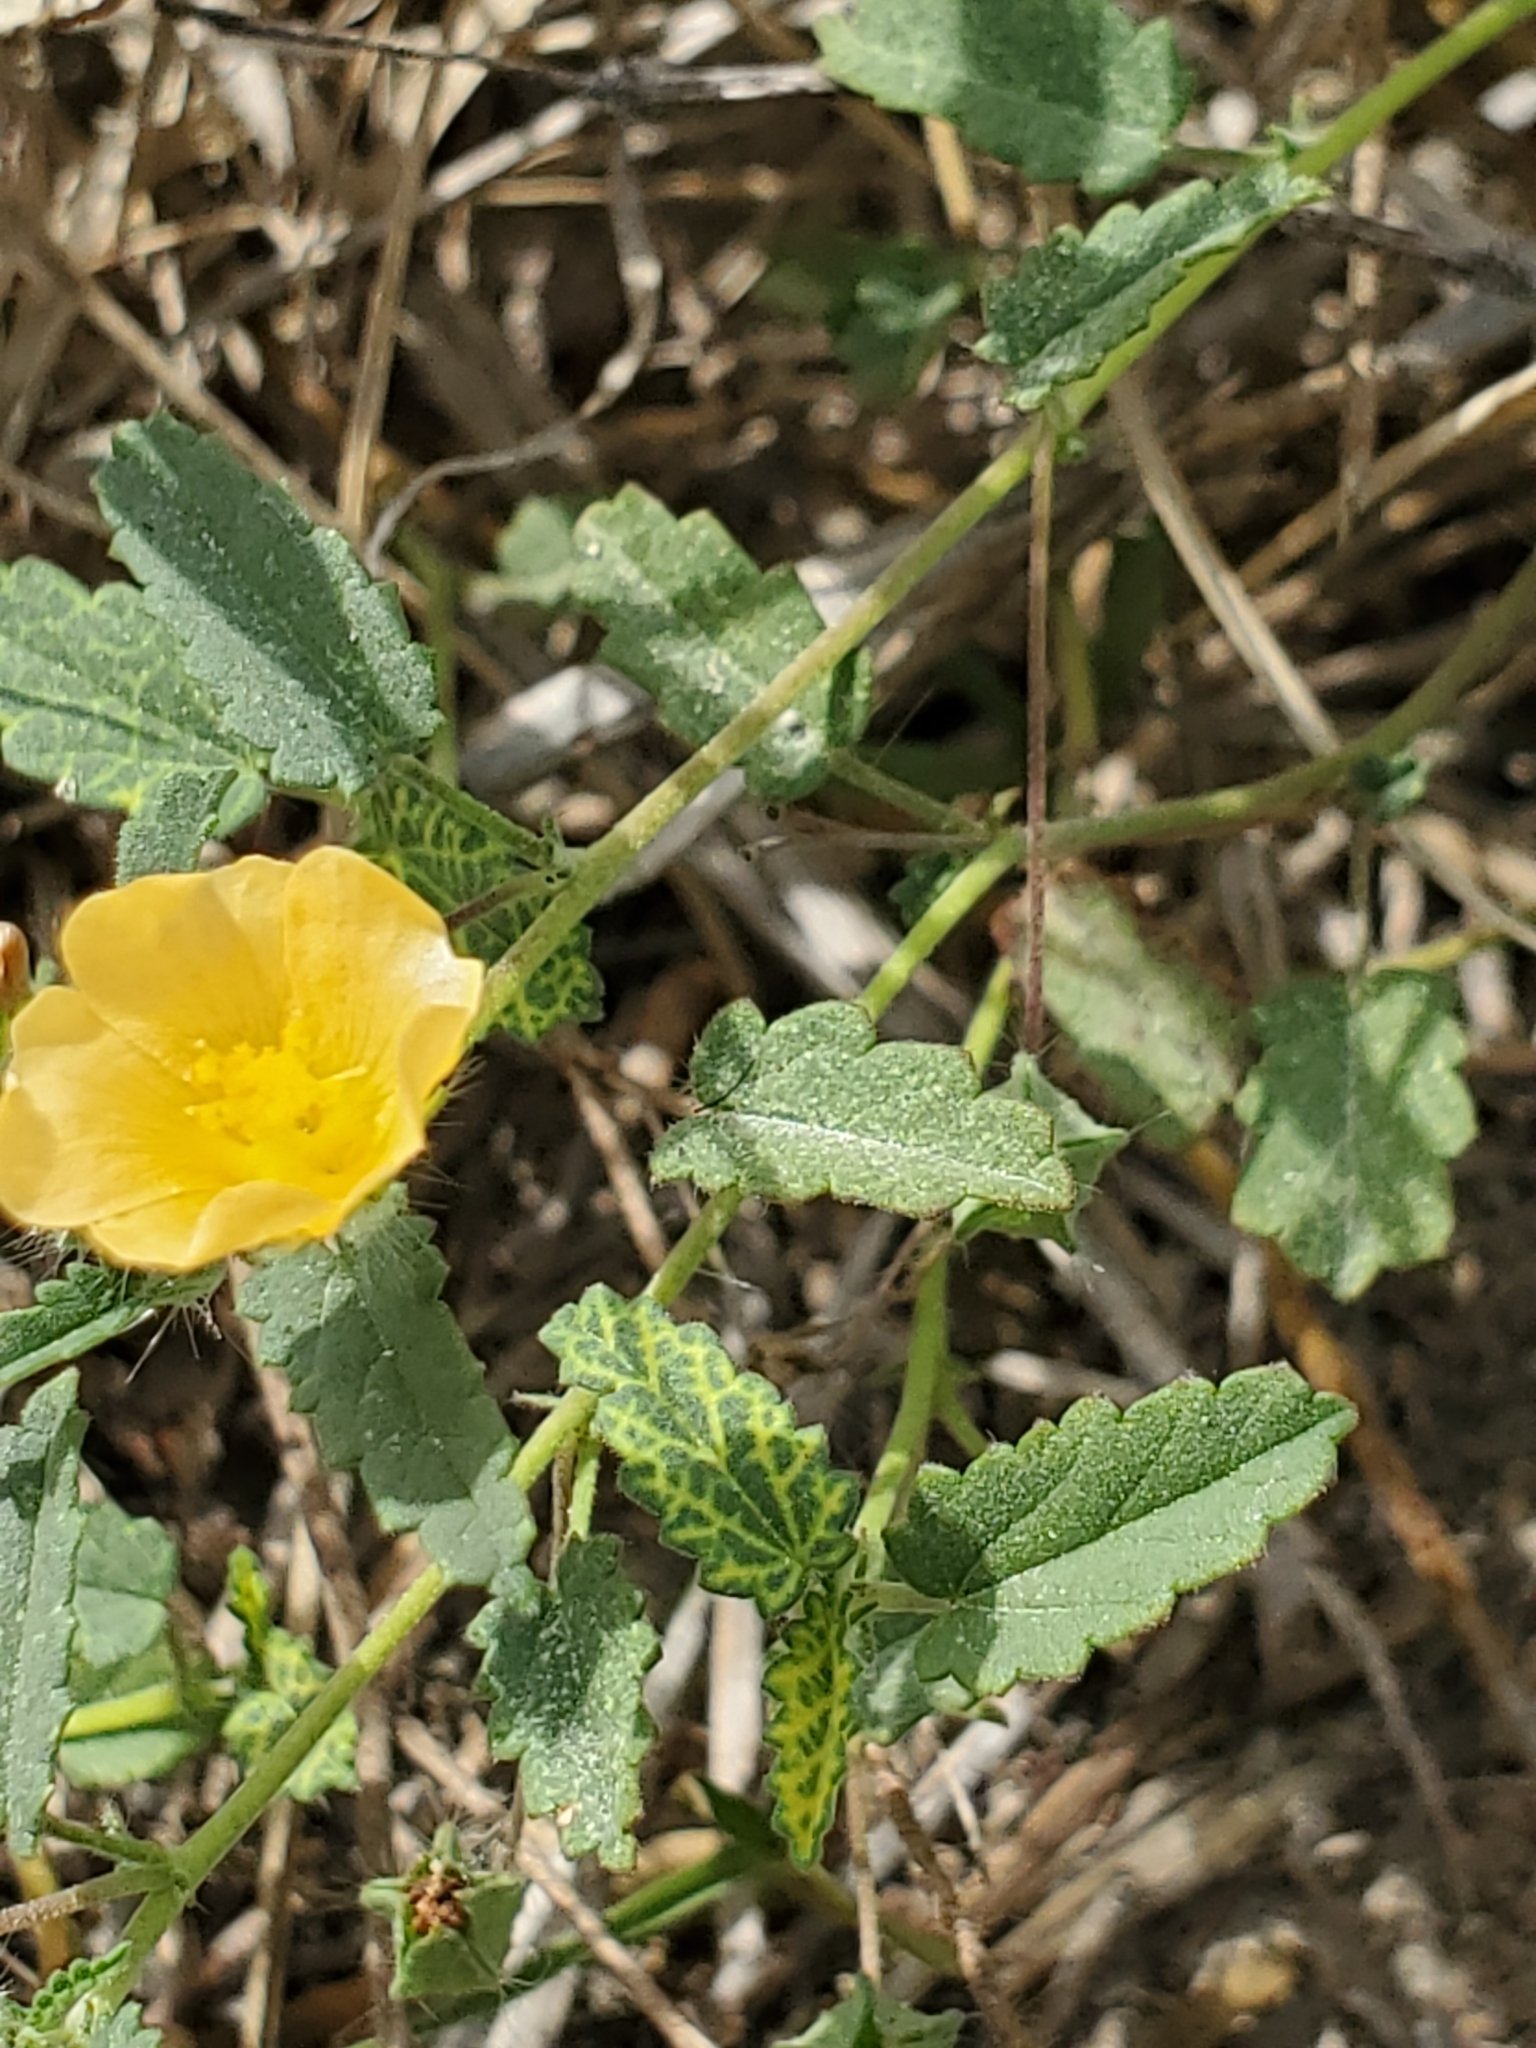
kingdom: Plantae
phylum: Tracheophyta
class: Magnoliopsida
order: Malvales
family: Malvaceae
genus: Sida
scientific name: Sida abutilifolia
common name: Spreading fanpetals
